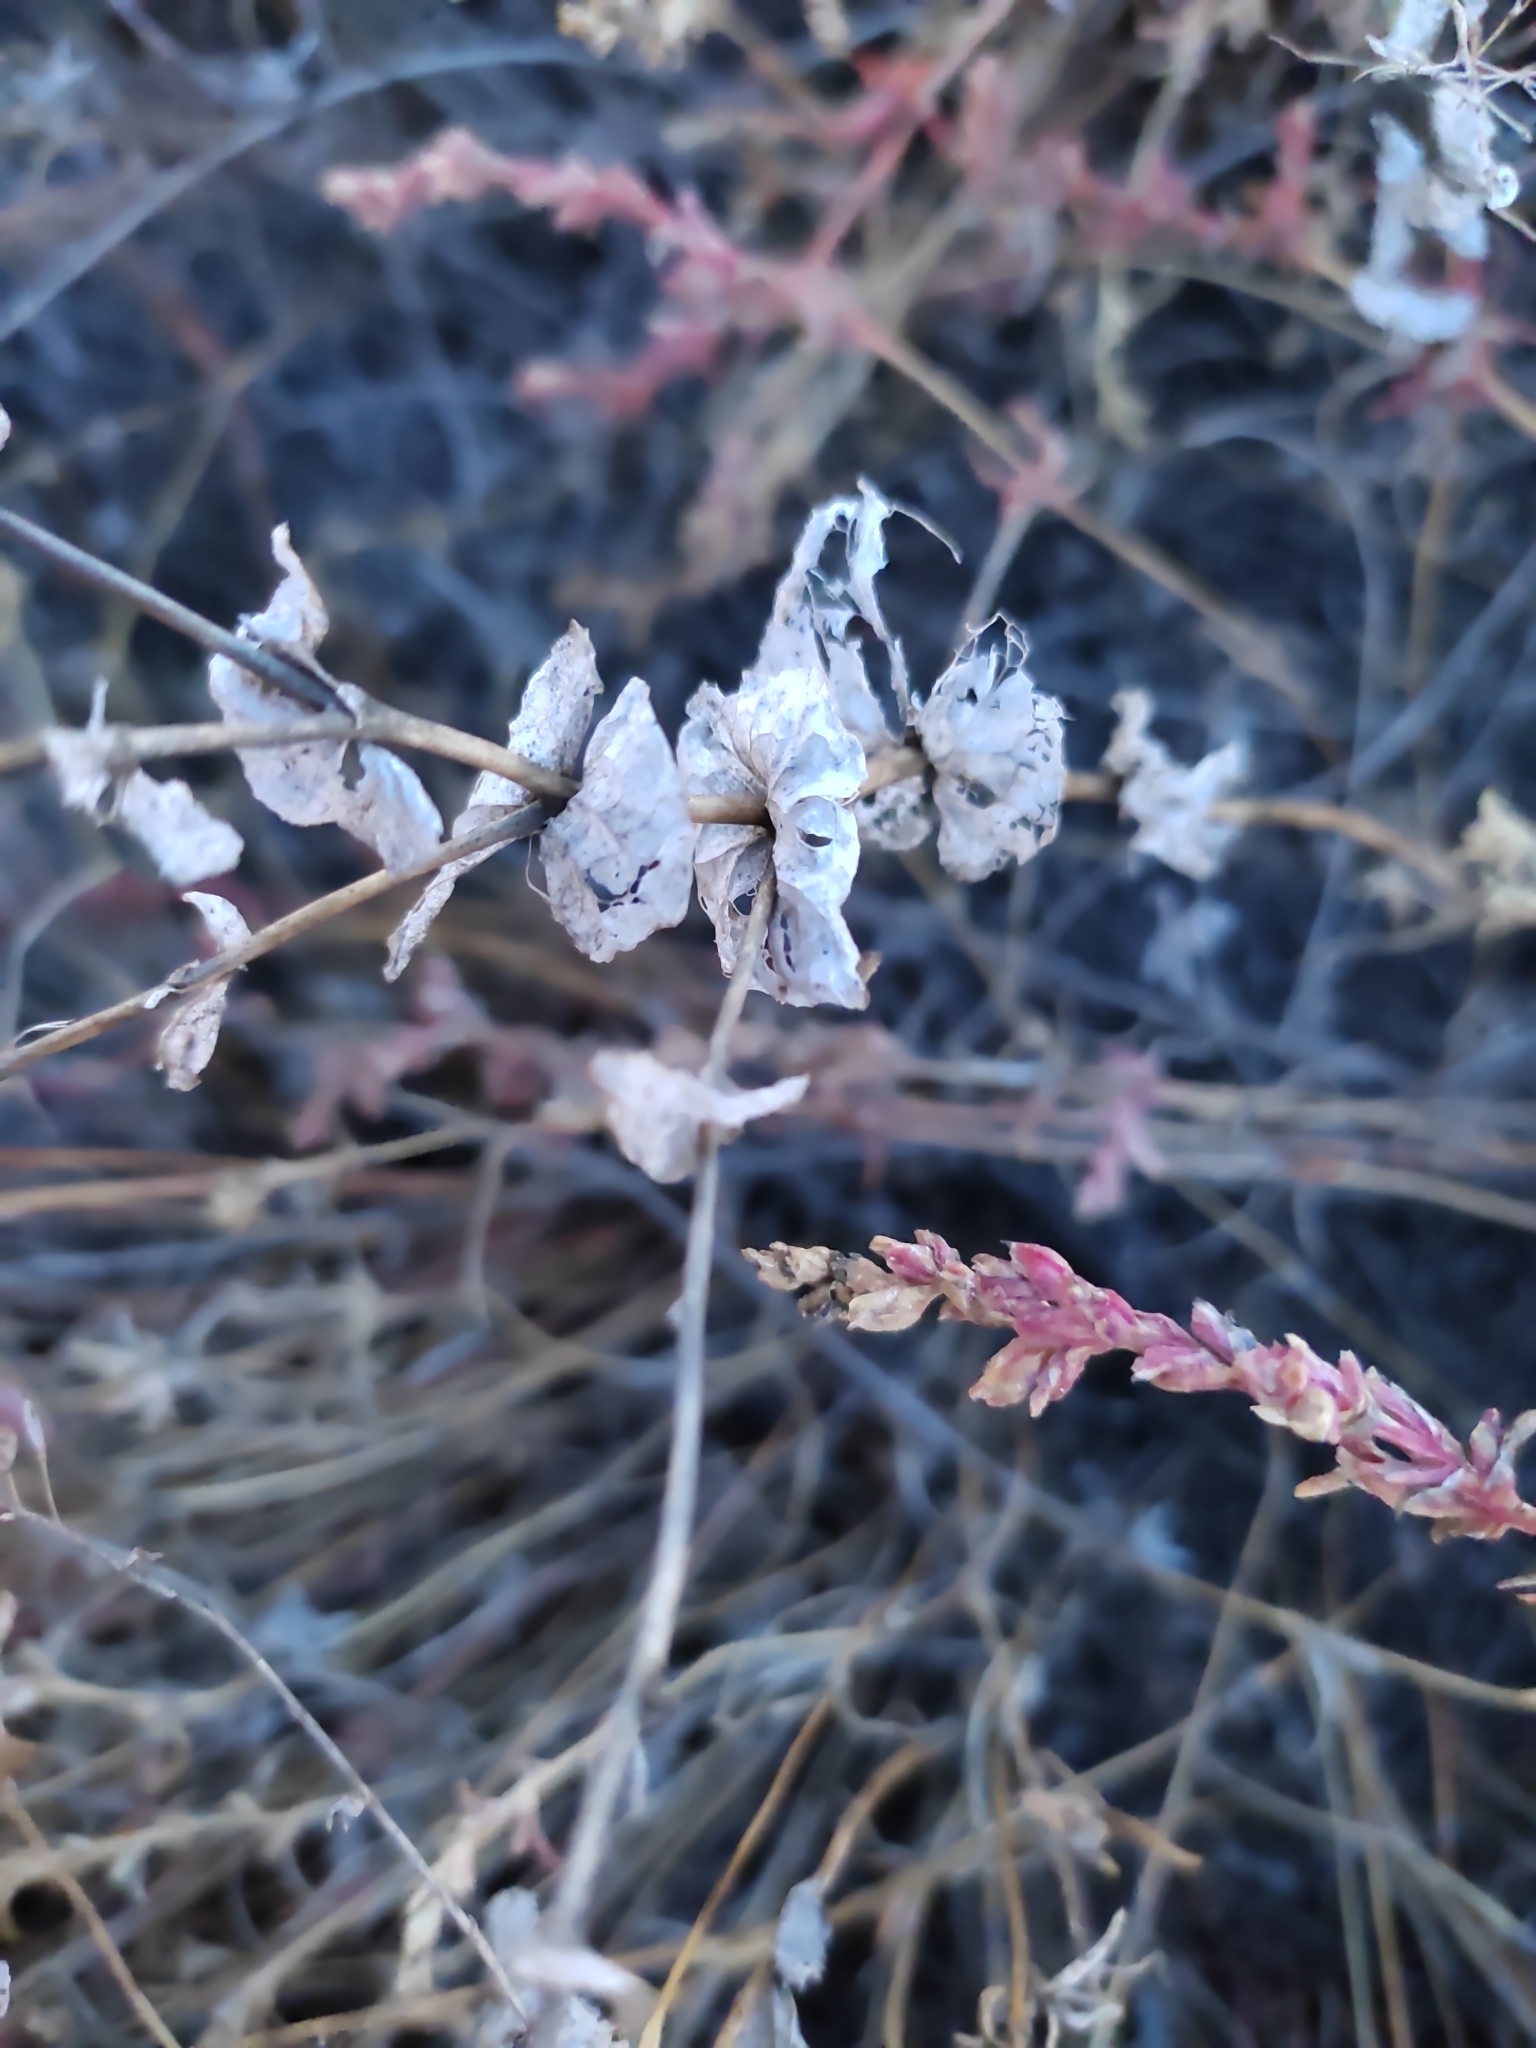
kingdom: Plantae
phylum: Tracheophyta
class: Magnoliopsida
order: Brassicales
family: Brassicaceae
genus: Lepidium
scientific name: Lepidium perfoliatum
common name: Perfoliate pepperwort
